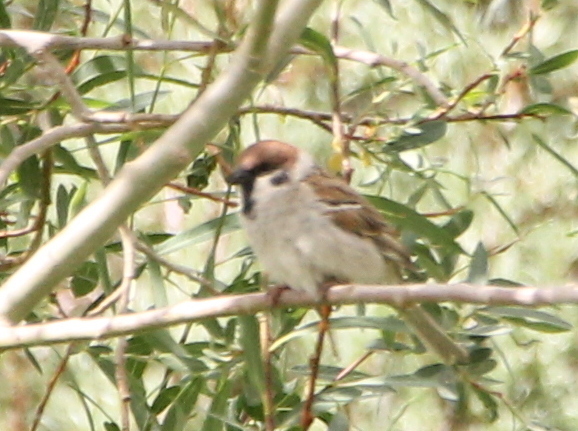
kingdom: Animalia
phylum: Chordata
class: Aves
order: Passeriformes
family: Passeridae
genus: Passer
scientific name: Passer montanus
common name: Eurasian tree sparrow
